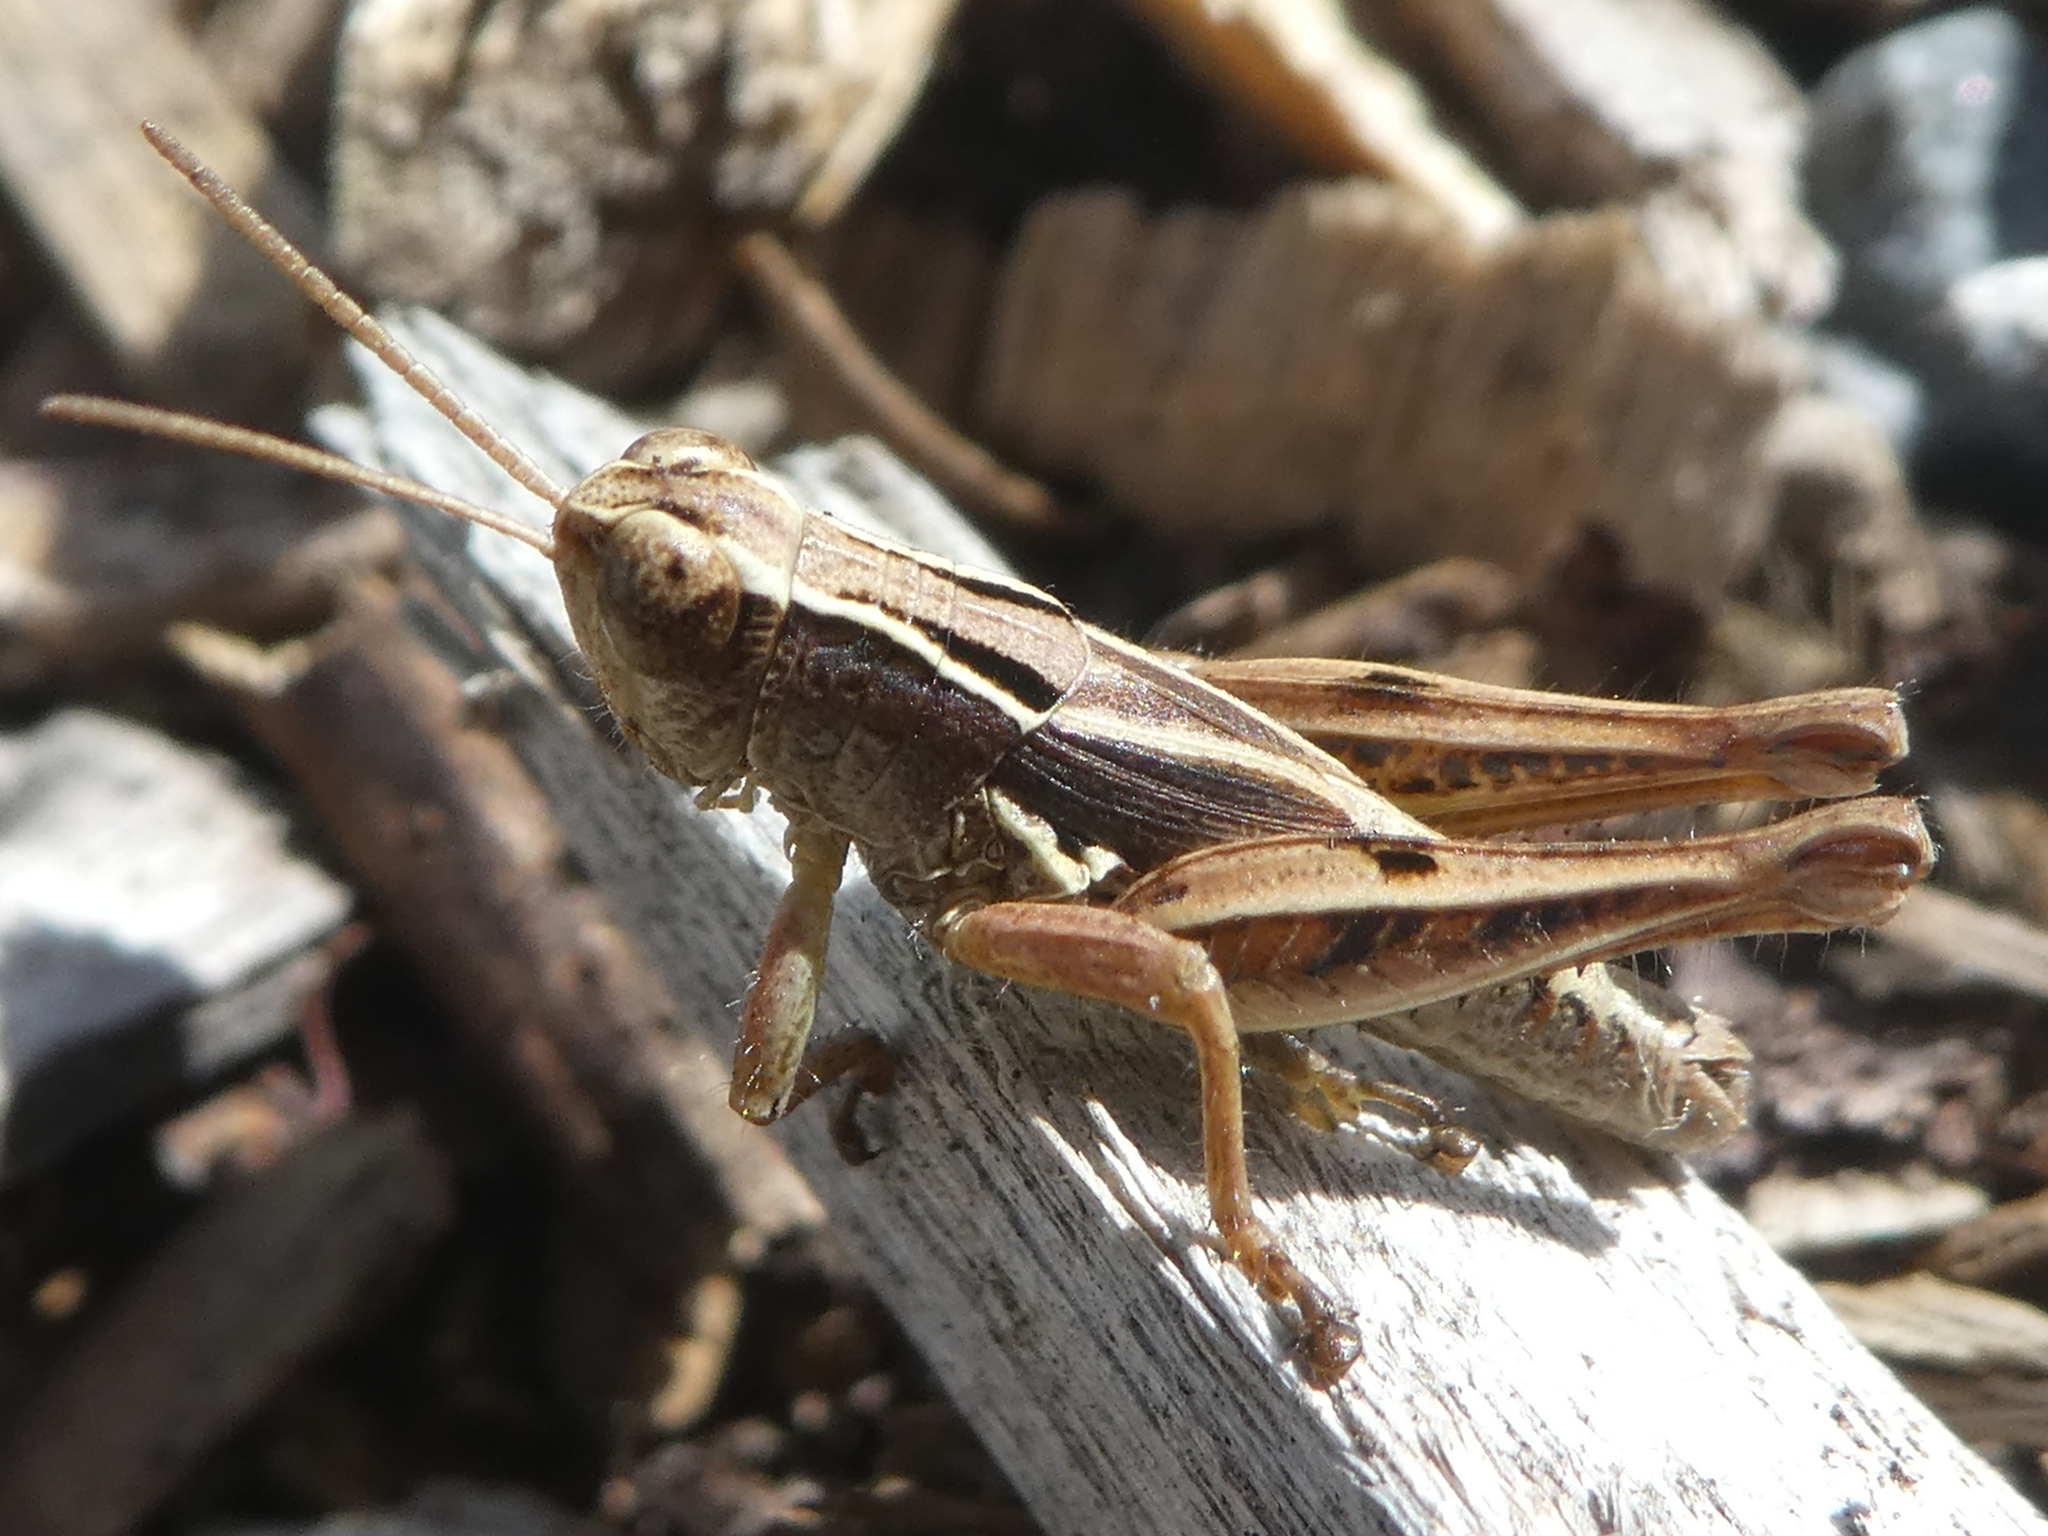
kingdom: Animalia
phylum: Arthropoda
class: Insecta
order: Orthoptera
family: Acrididae
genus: Phaulacridium
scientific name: Phaulacridium marginale
